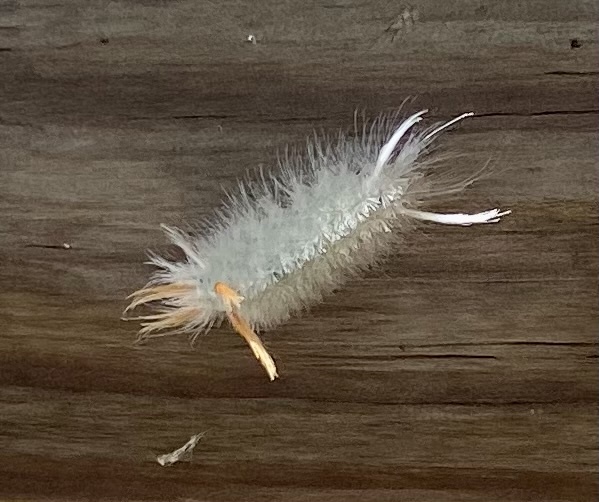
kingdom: Animalia
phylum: Arthropoda
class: Insecta
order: Lepidoptera
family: Erebidae
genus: Halysidota
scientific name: Halysidota harrisii
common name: Sycamore tussock moth
